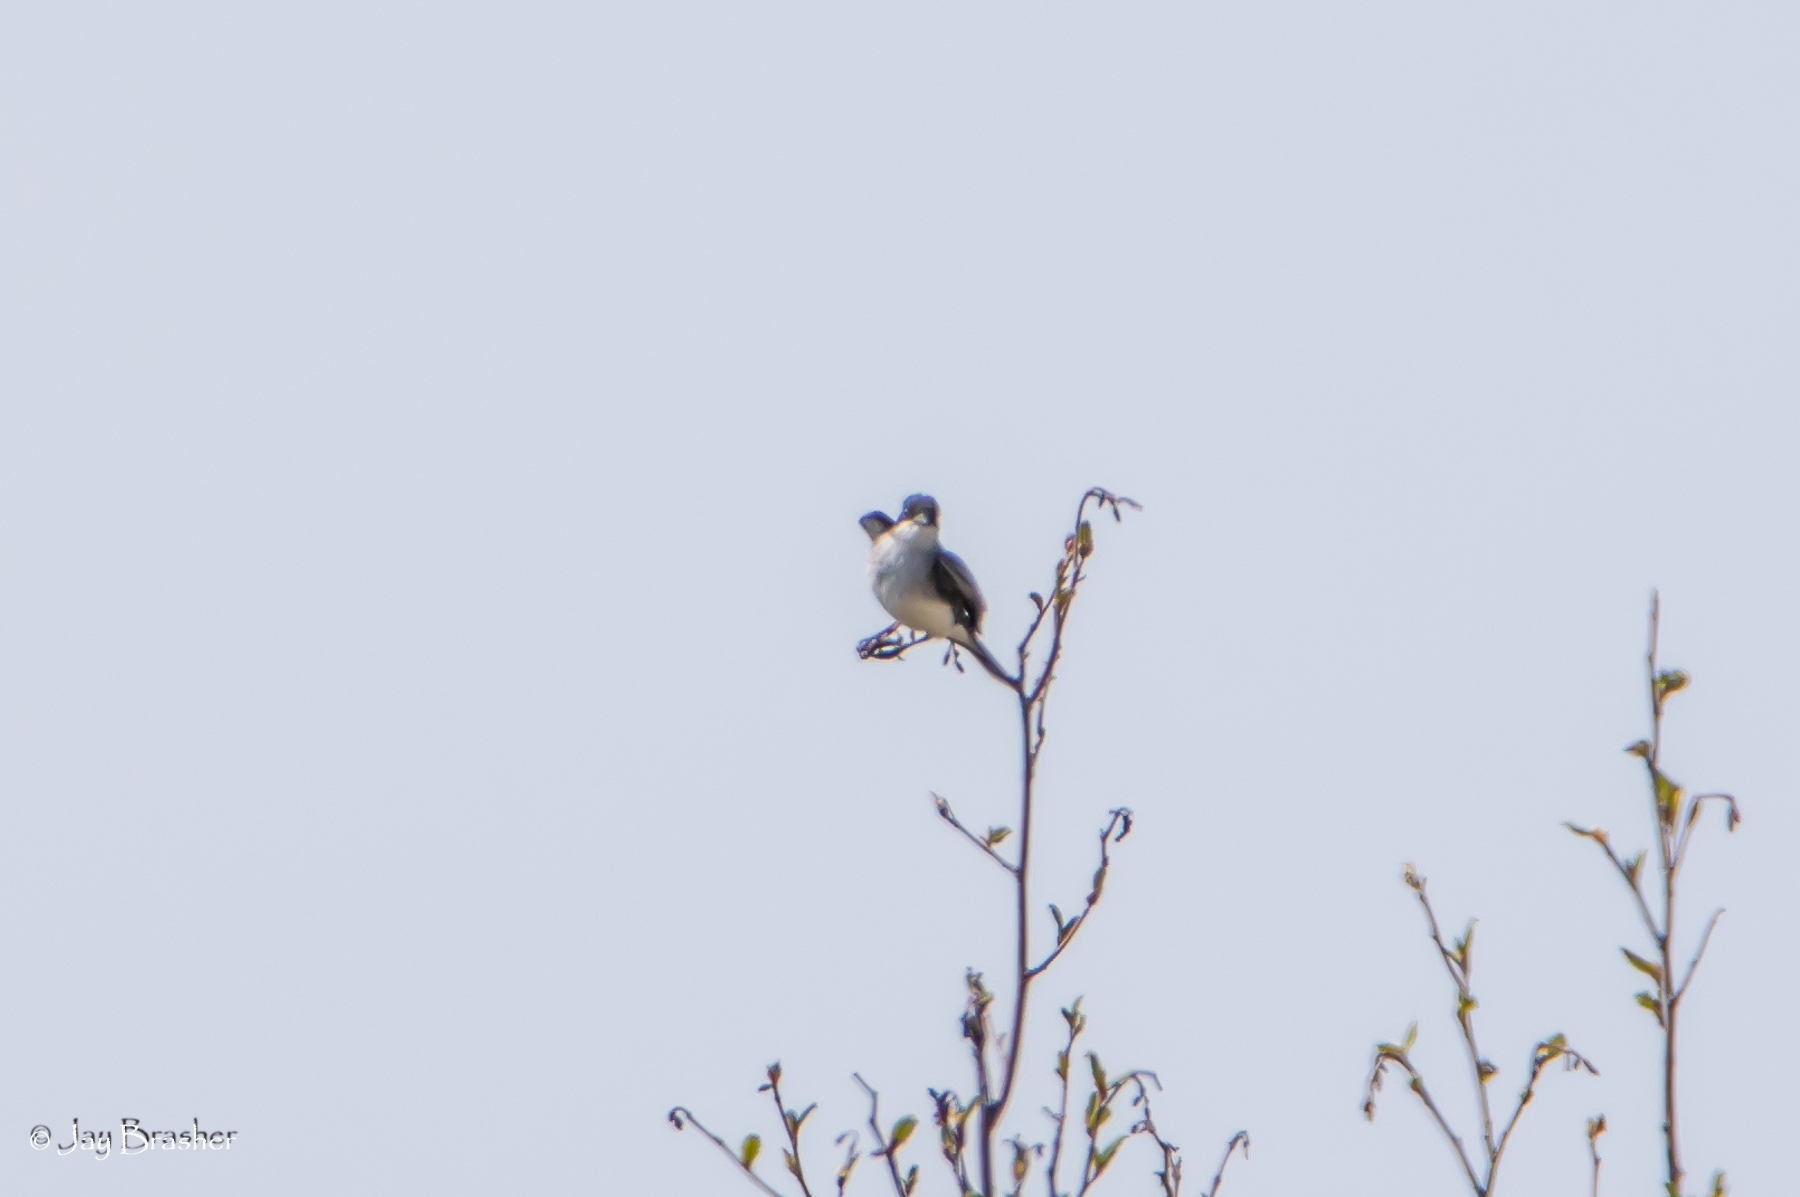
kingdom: Animalia
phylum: Chordata
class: Aves
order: Passeriformes
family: Tyrannidae
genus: Tyrannus
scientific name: Tyrannus tyrannus
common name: Eastern kingbird
